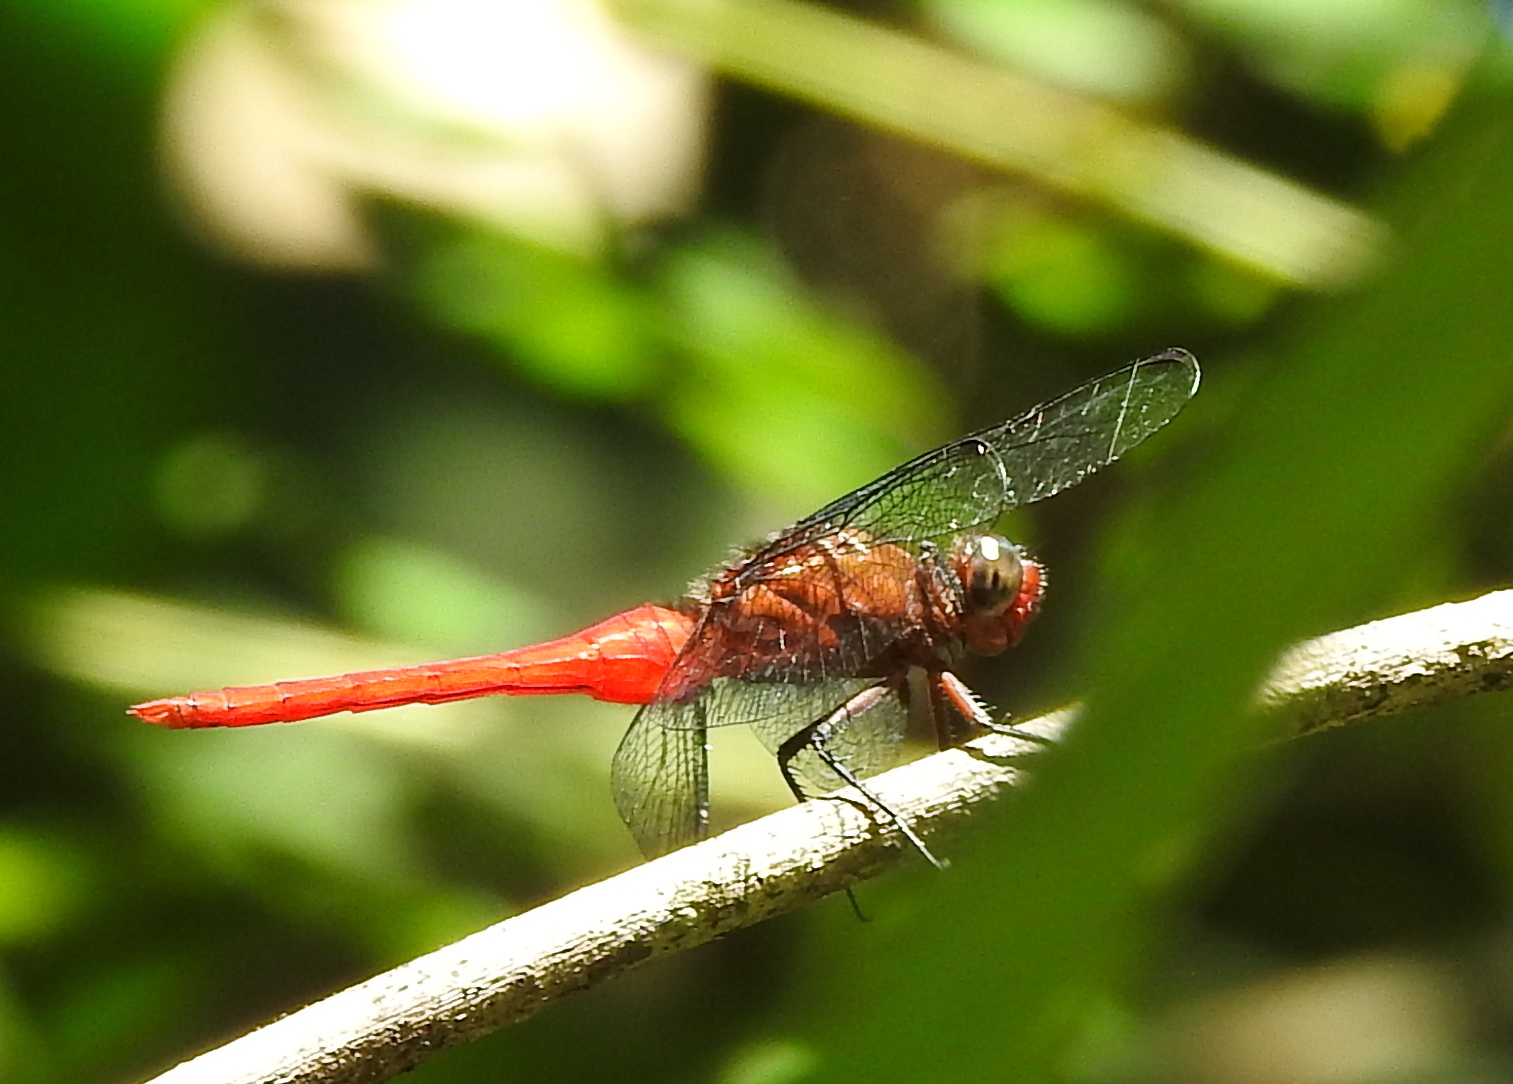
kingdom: Animalia
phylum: Arthropoda
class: Insecta
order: Odonata
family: Libellulidae
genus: Orthetrum
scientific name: Orthetrum testaceum
